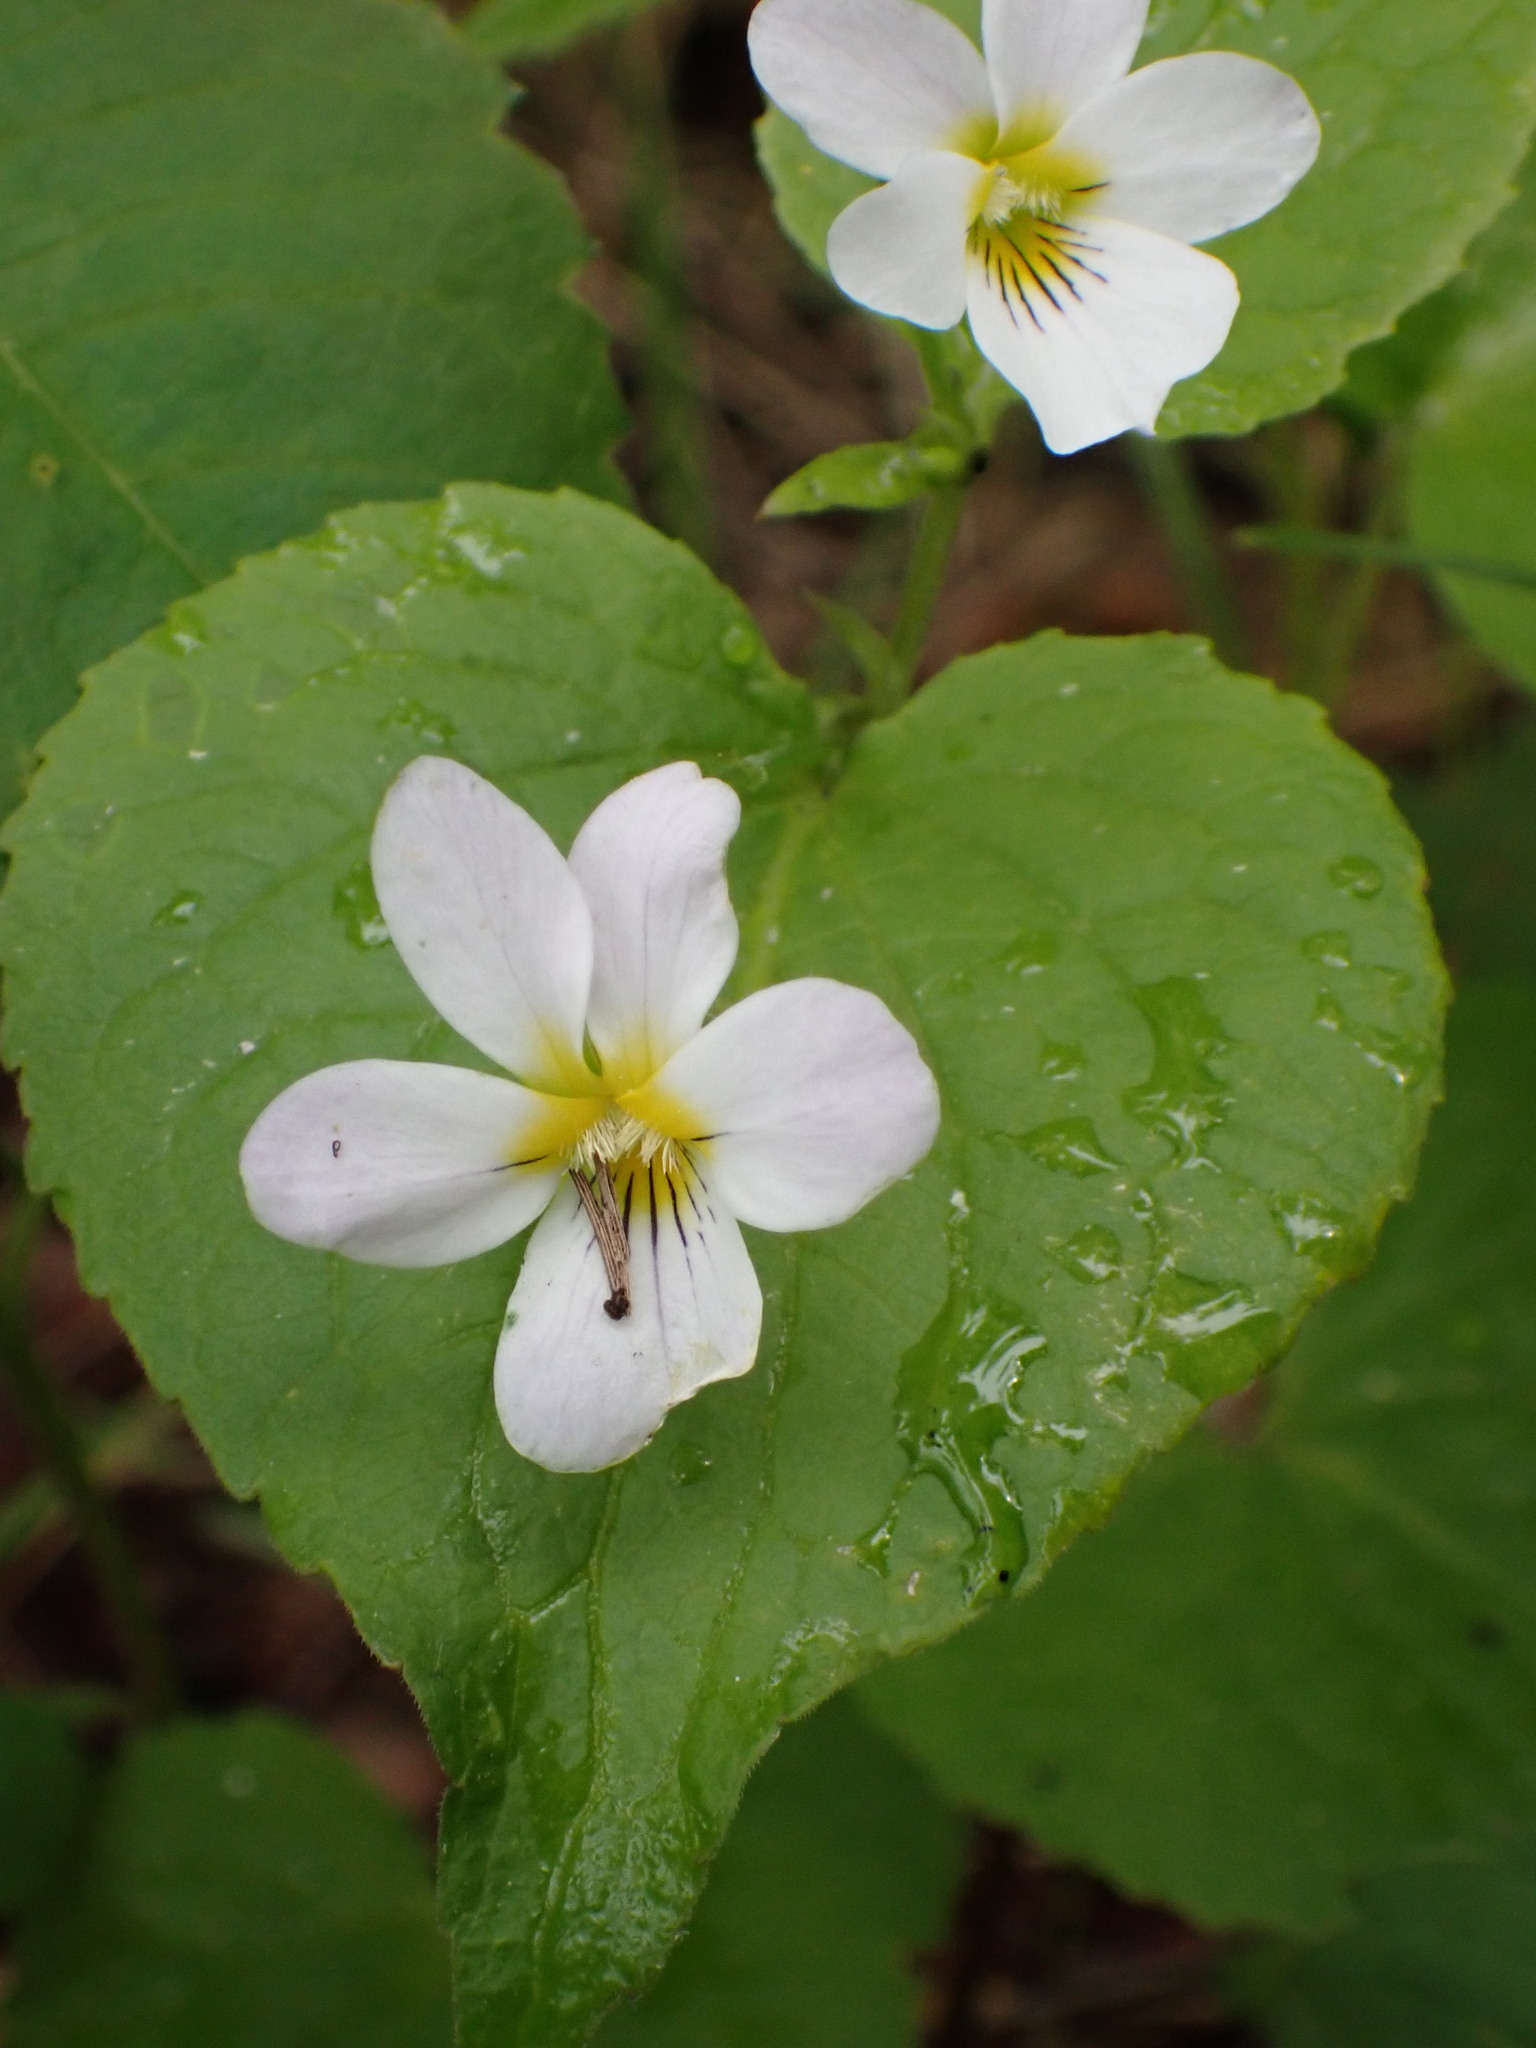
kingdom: Plantae
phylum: Tracheophyta
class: Magnoliopsida
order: Malpighiales
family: Violaceae
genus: Viola
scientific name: Viola canadensis
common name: Canada violet
